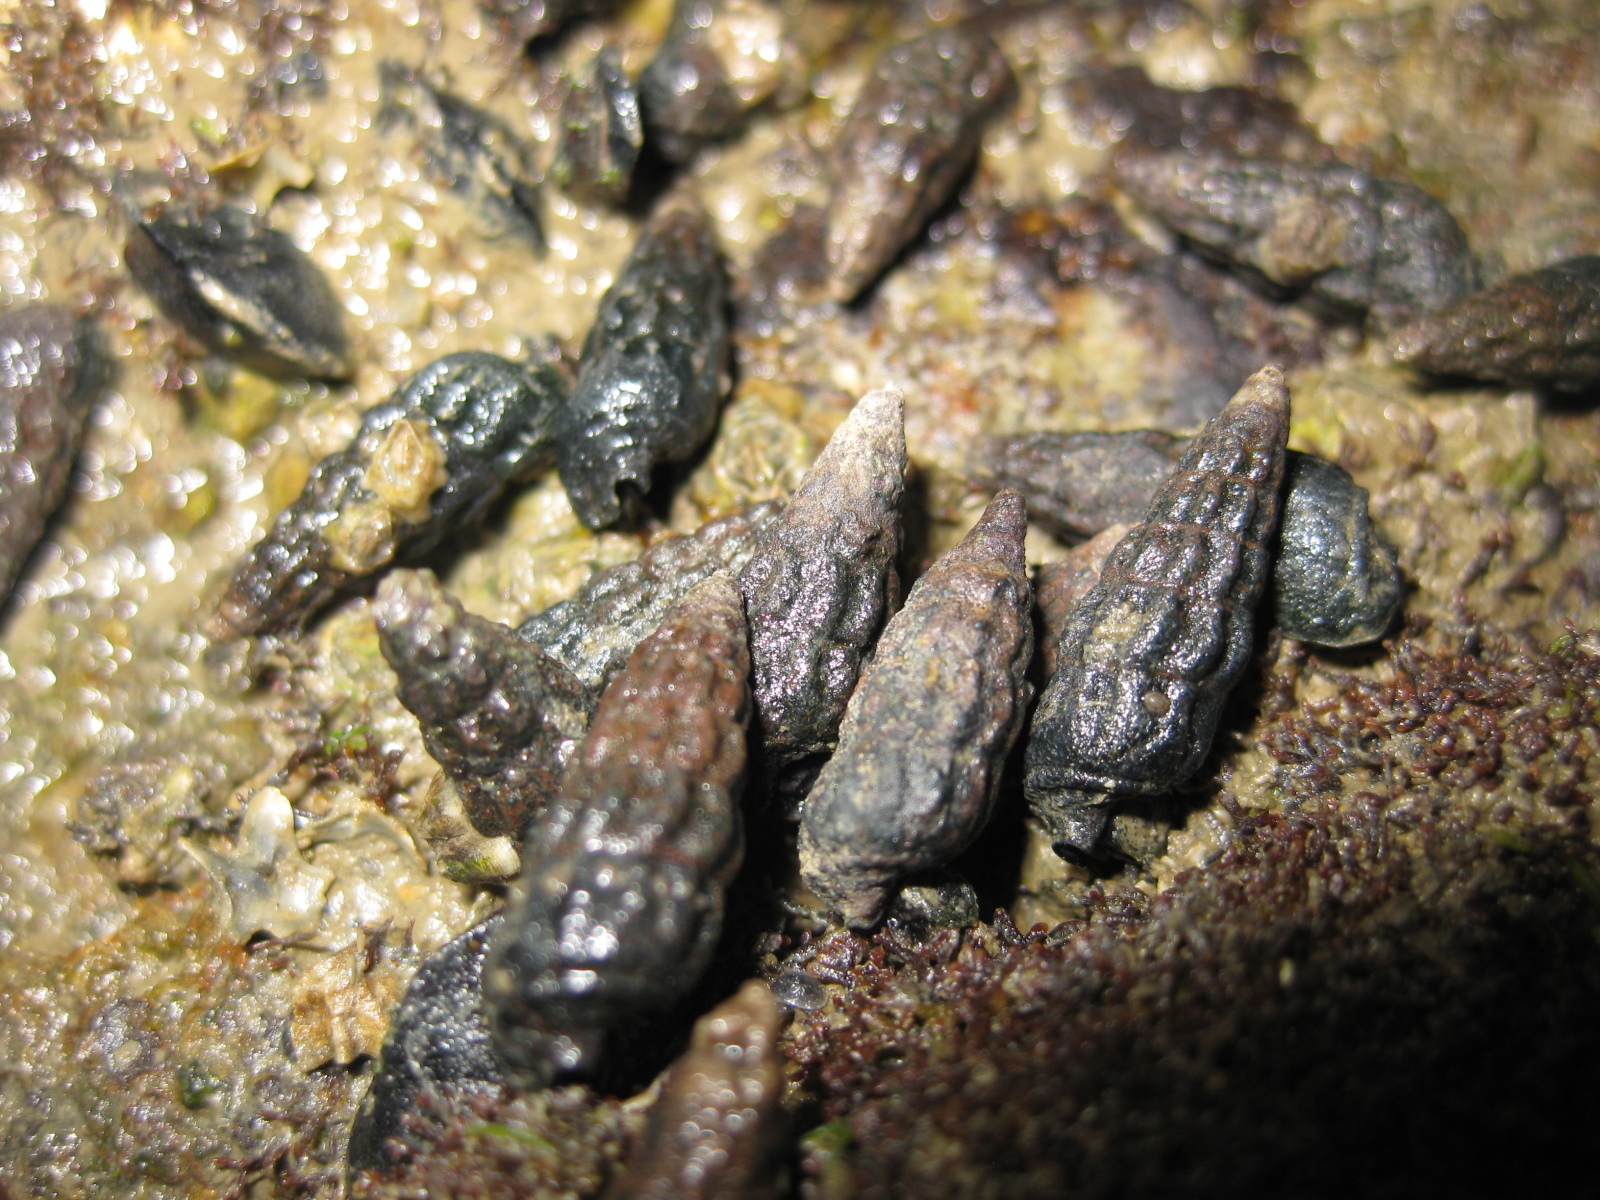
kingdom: Animalia
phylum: Mollusca
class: Gastropoda
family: Batillariidae
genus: Zeacumantus
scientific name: Zeacumantus subcarinatus
